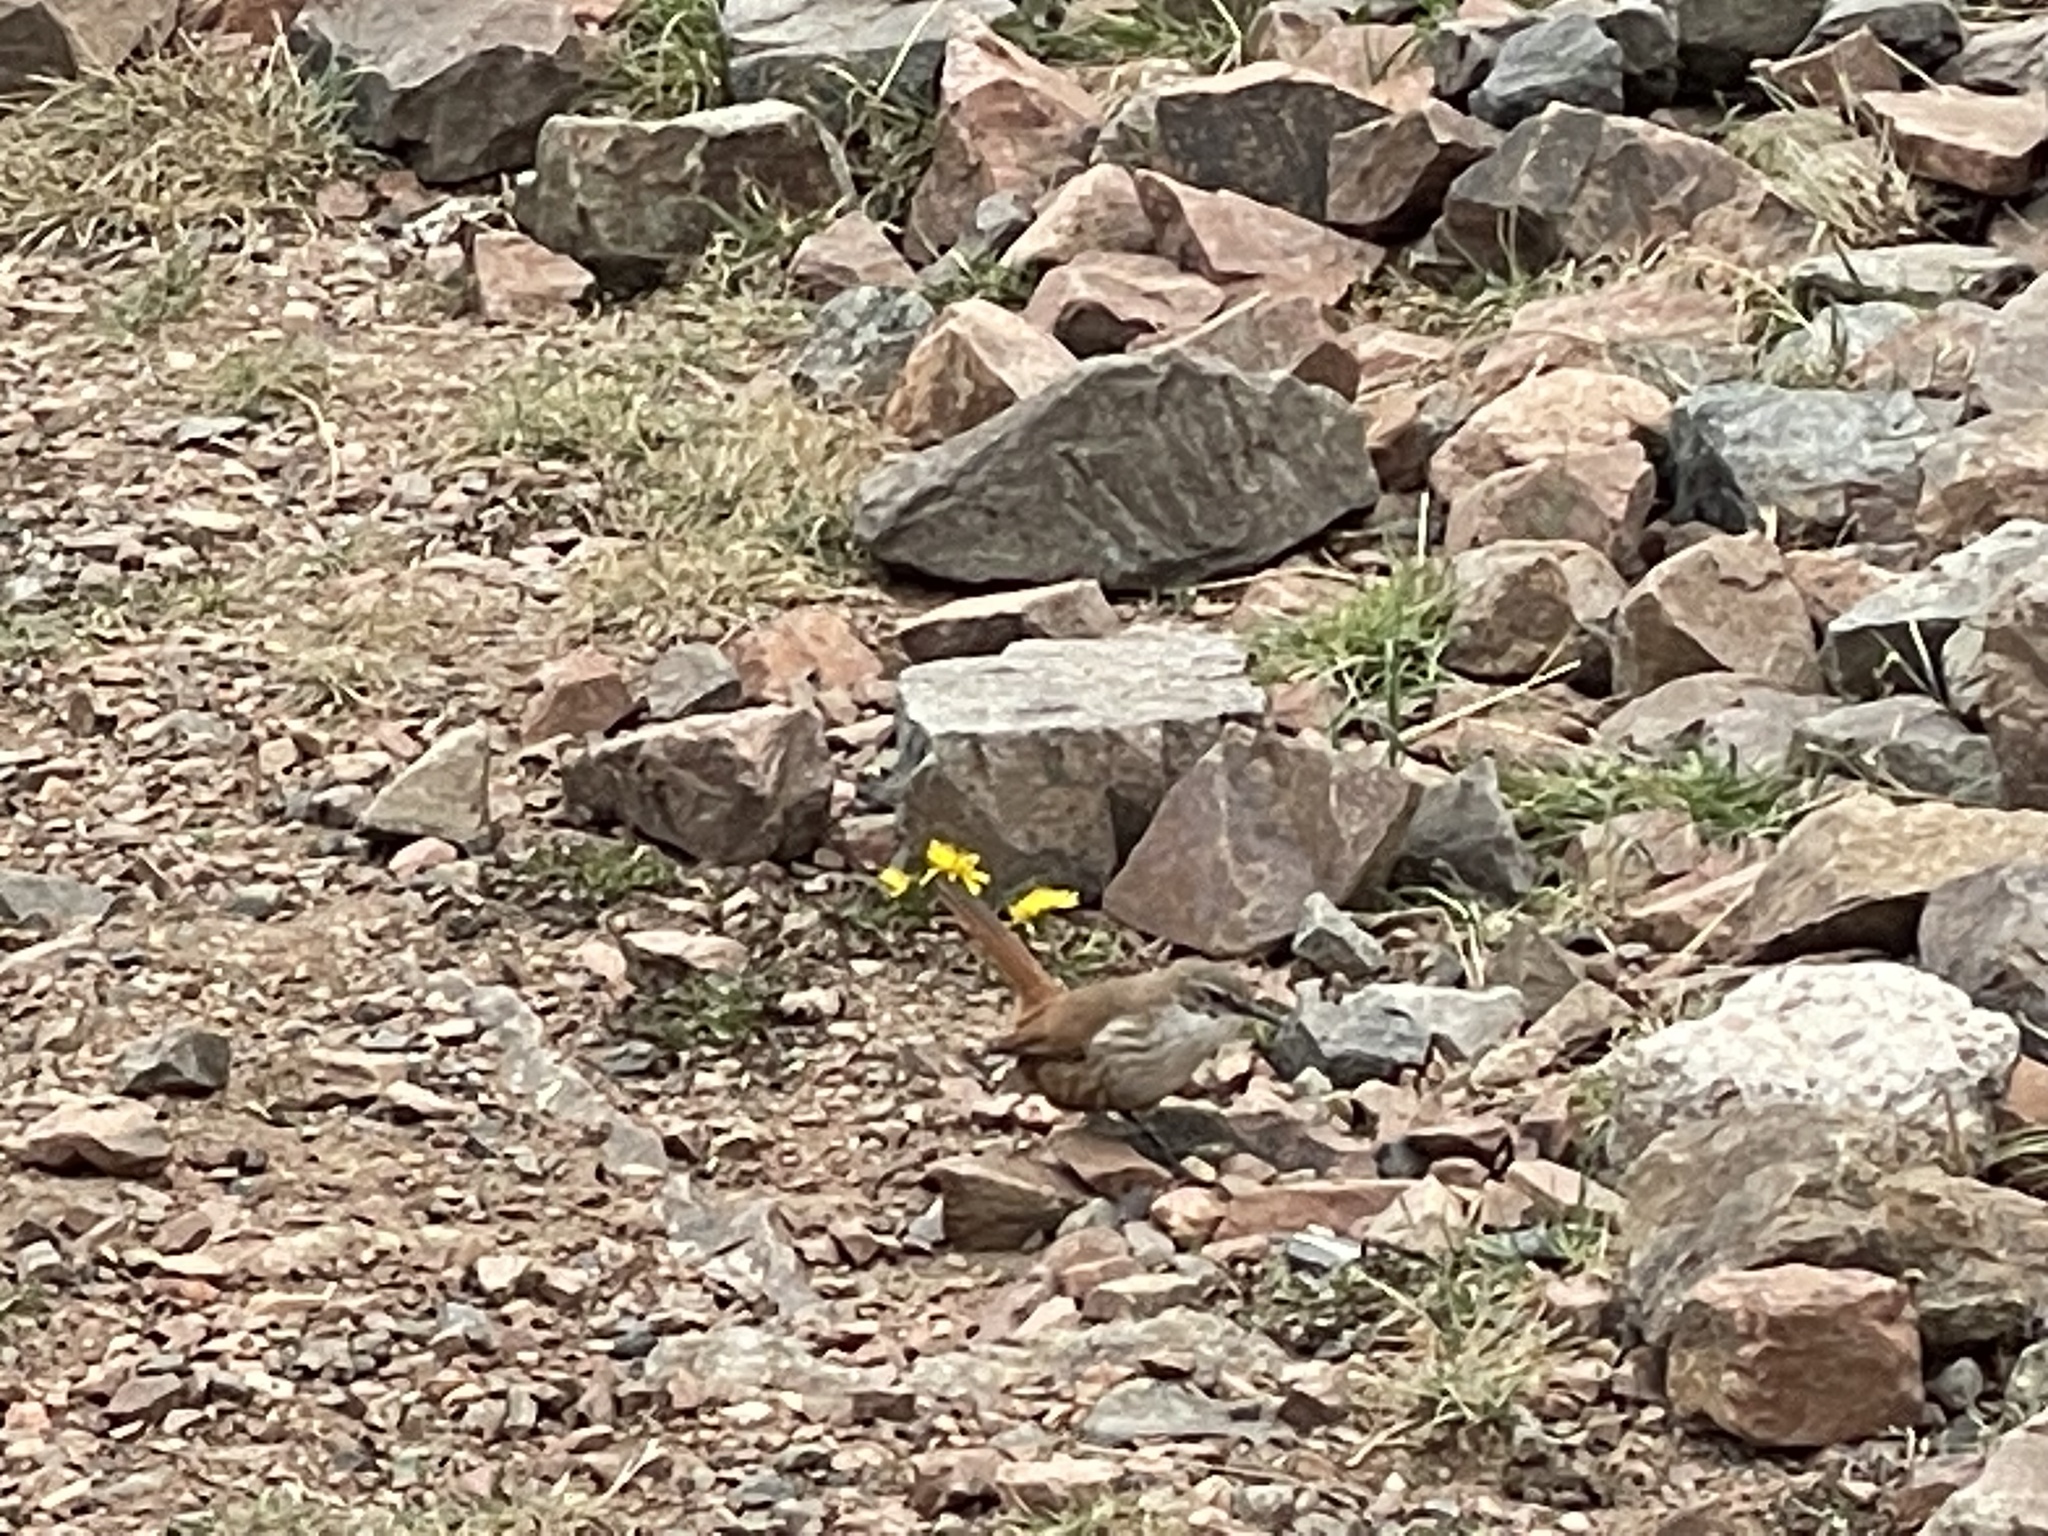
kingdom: Animalia
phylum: Chordata
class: Aves
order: Passeriformes
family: Furnariidae
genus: Upucerthia
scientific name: Upucerthia ruficaudus
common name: Straight-billed earthcreeper
